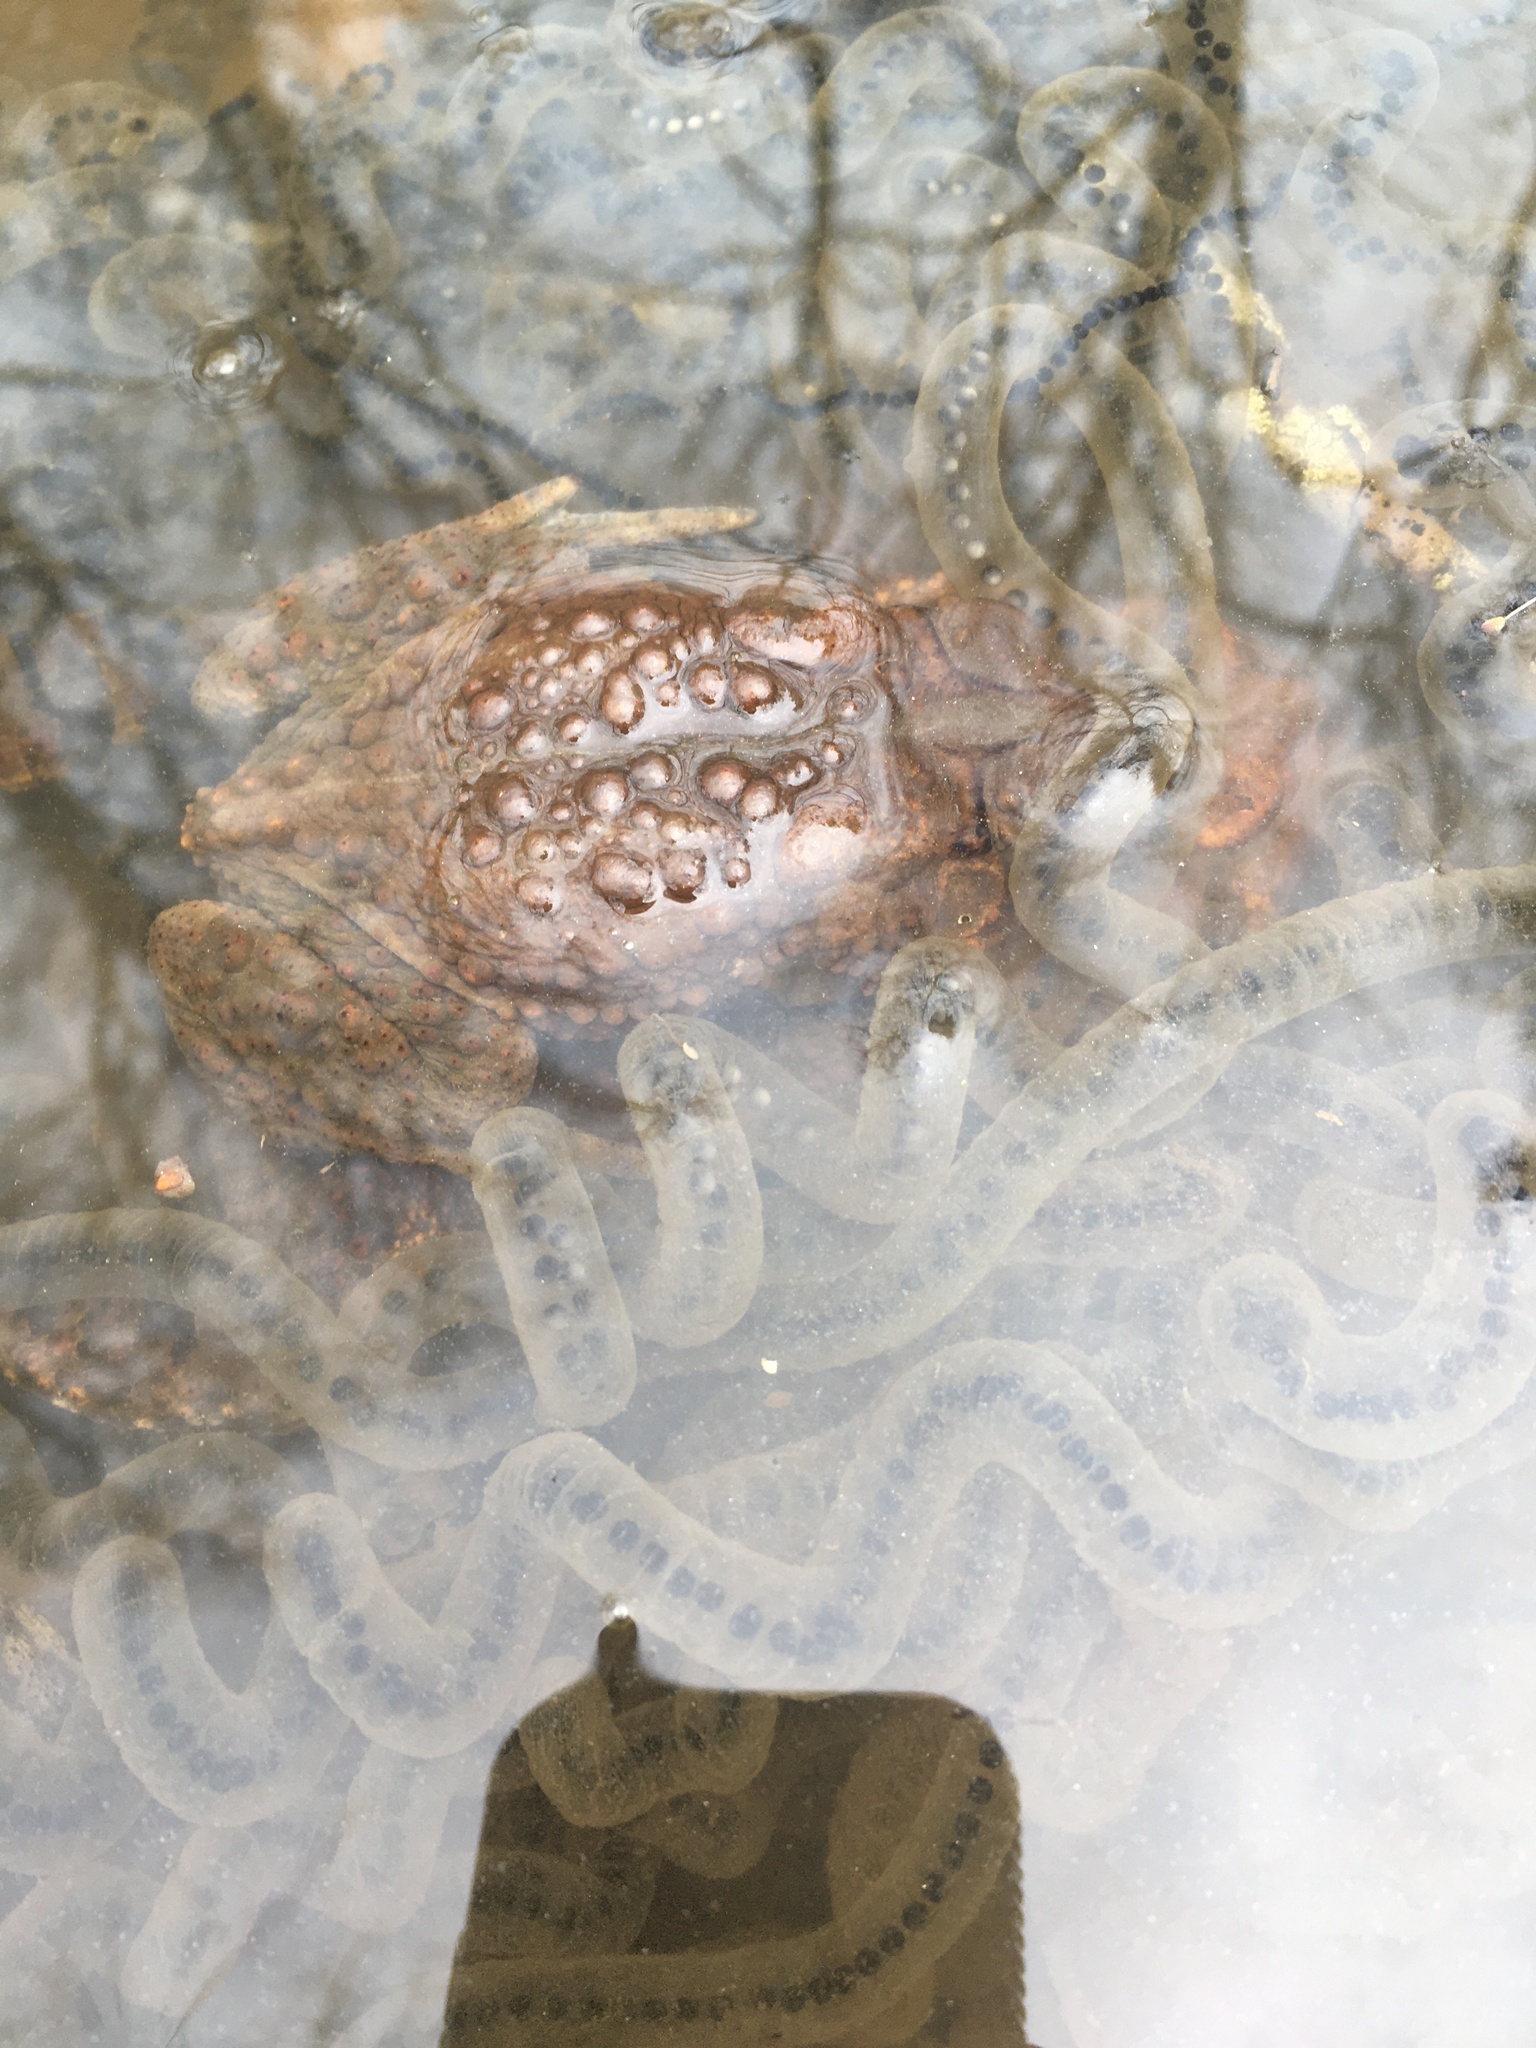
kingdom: Animalia
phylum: Chordata
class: Amphibia
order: Anura
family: Bufonidae
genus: Anaxyrus
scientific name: Anaxyrus americanus
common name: American toad
